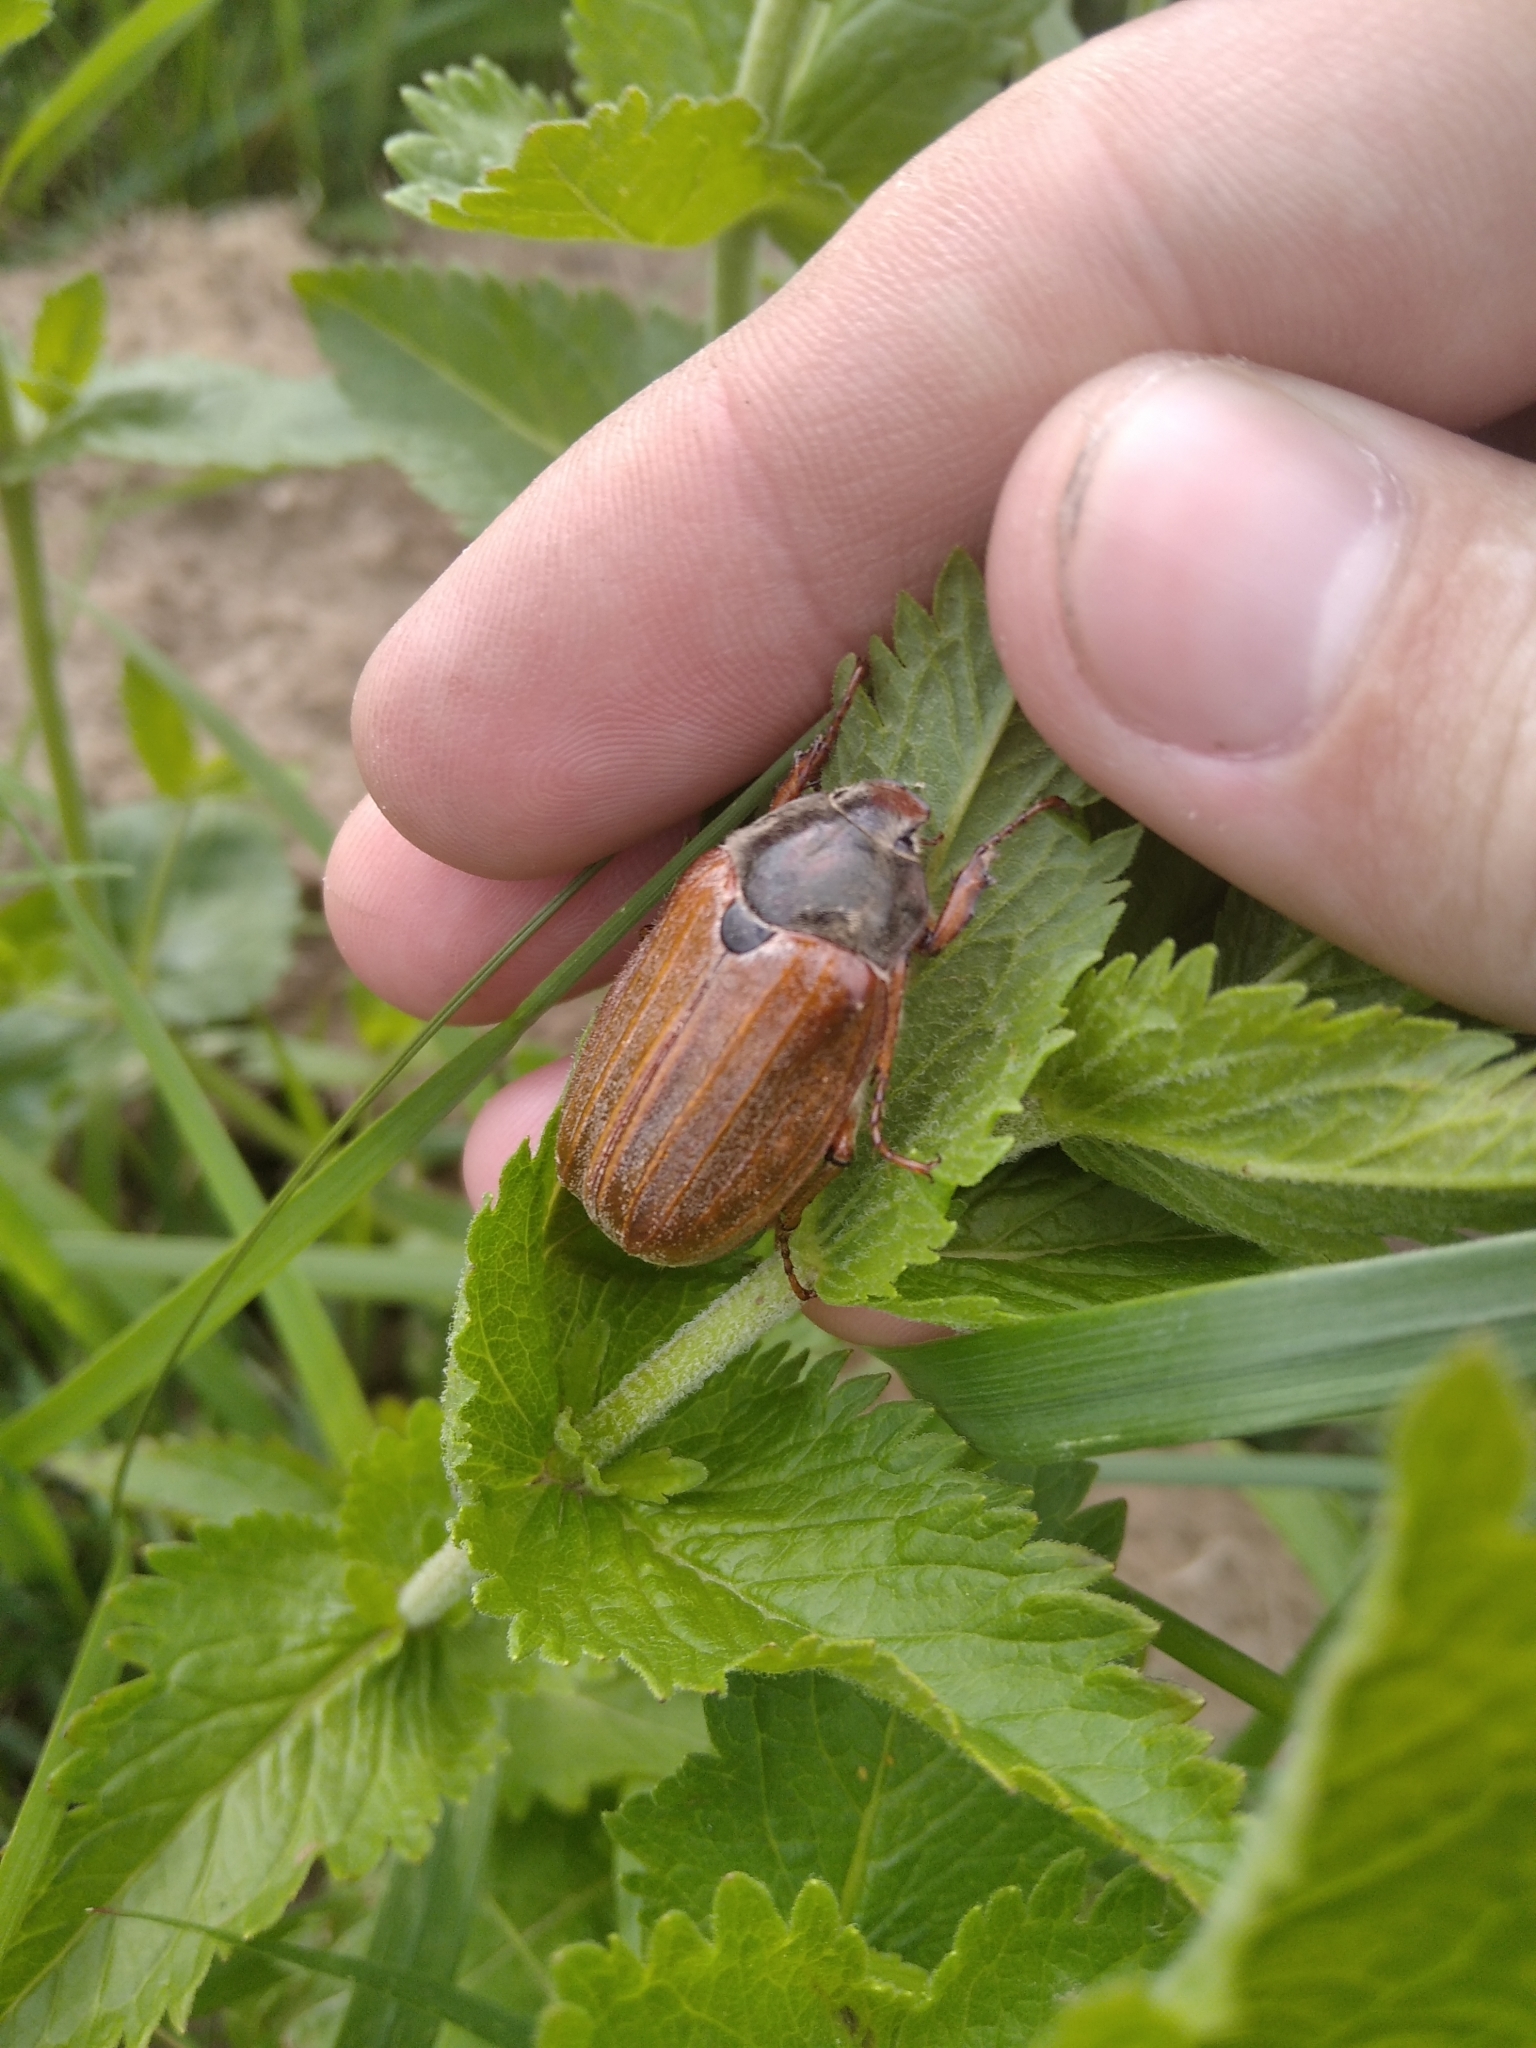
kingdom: Animalia
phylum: Arthropoda
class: Insecta
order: Coleoptera
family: Scarabaeidae
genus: Melolontha
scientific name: Melolontha melolontha
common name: Cockchafer maybeetle
